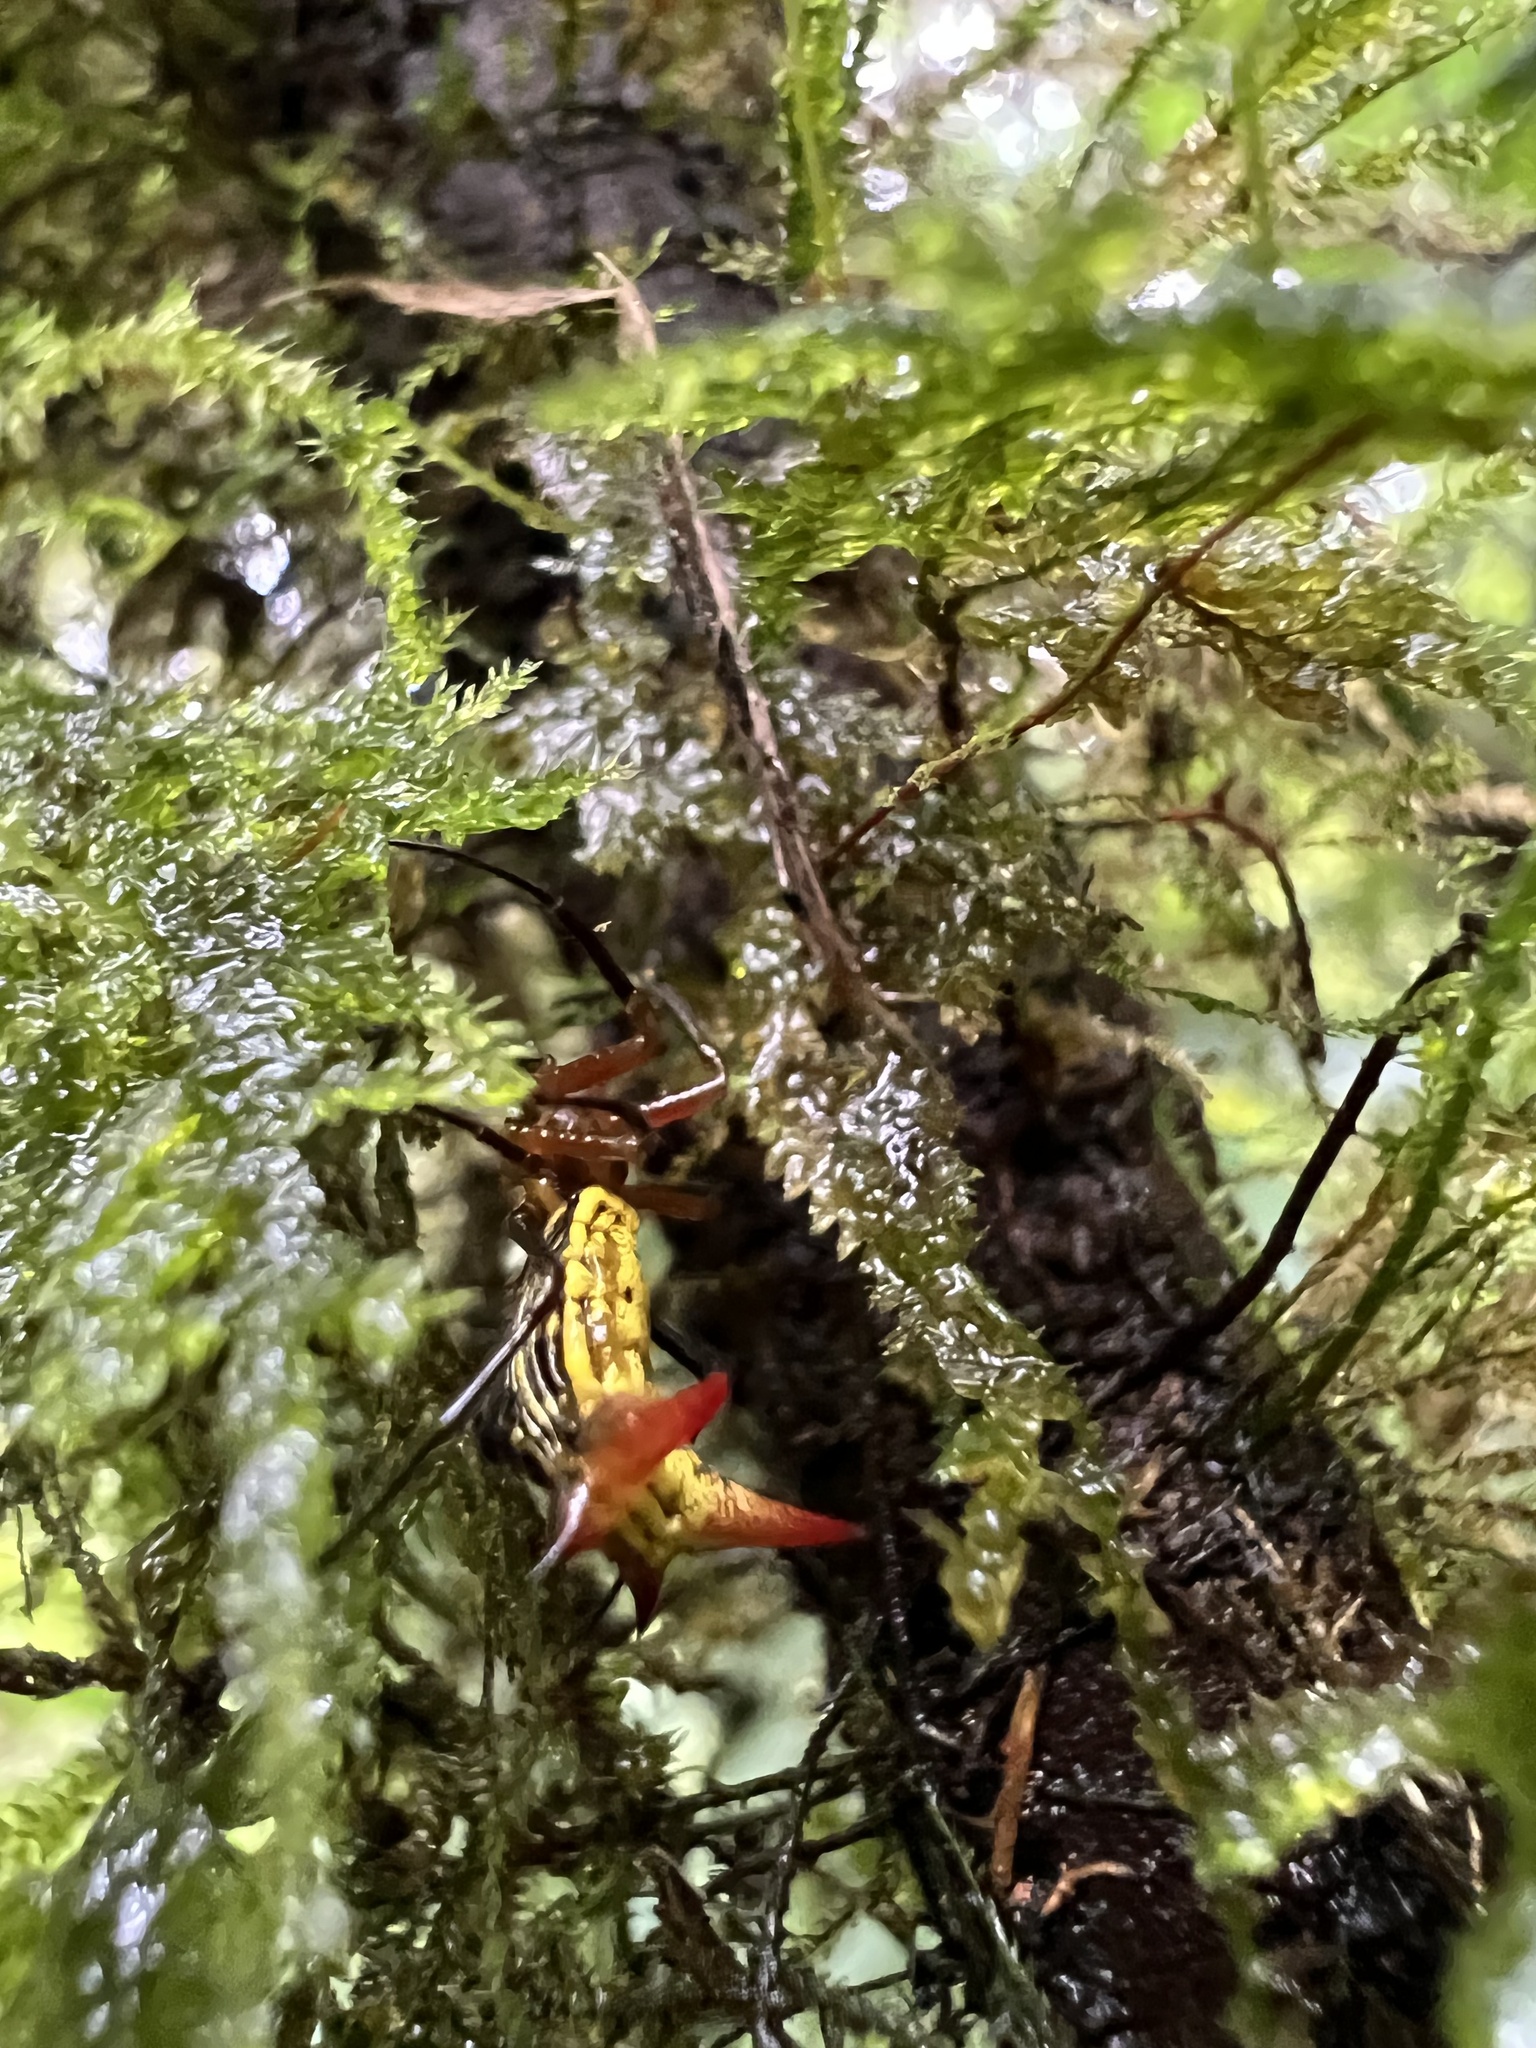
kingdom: Animalia
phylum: Arthropoda
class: Arachnida
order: Araneae
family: Araneidae
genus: Micrathena
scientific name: Micrathena guerini
